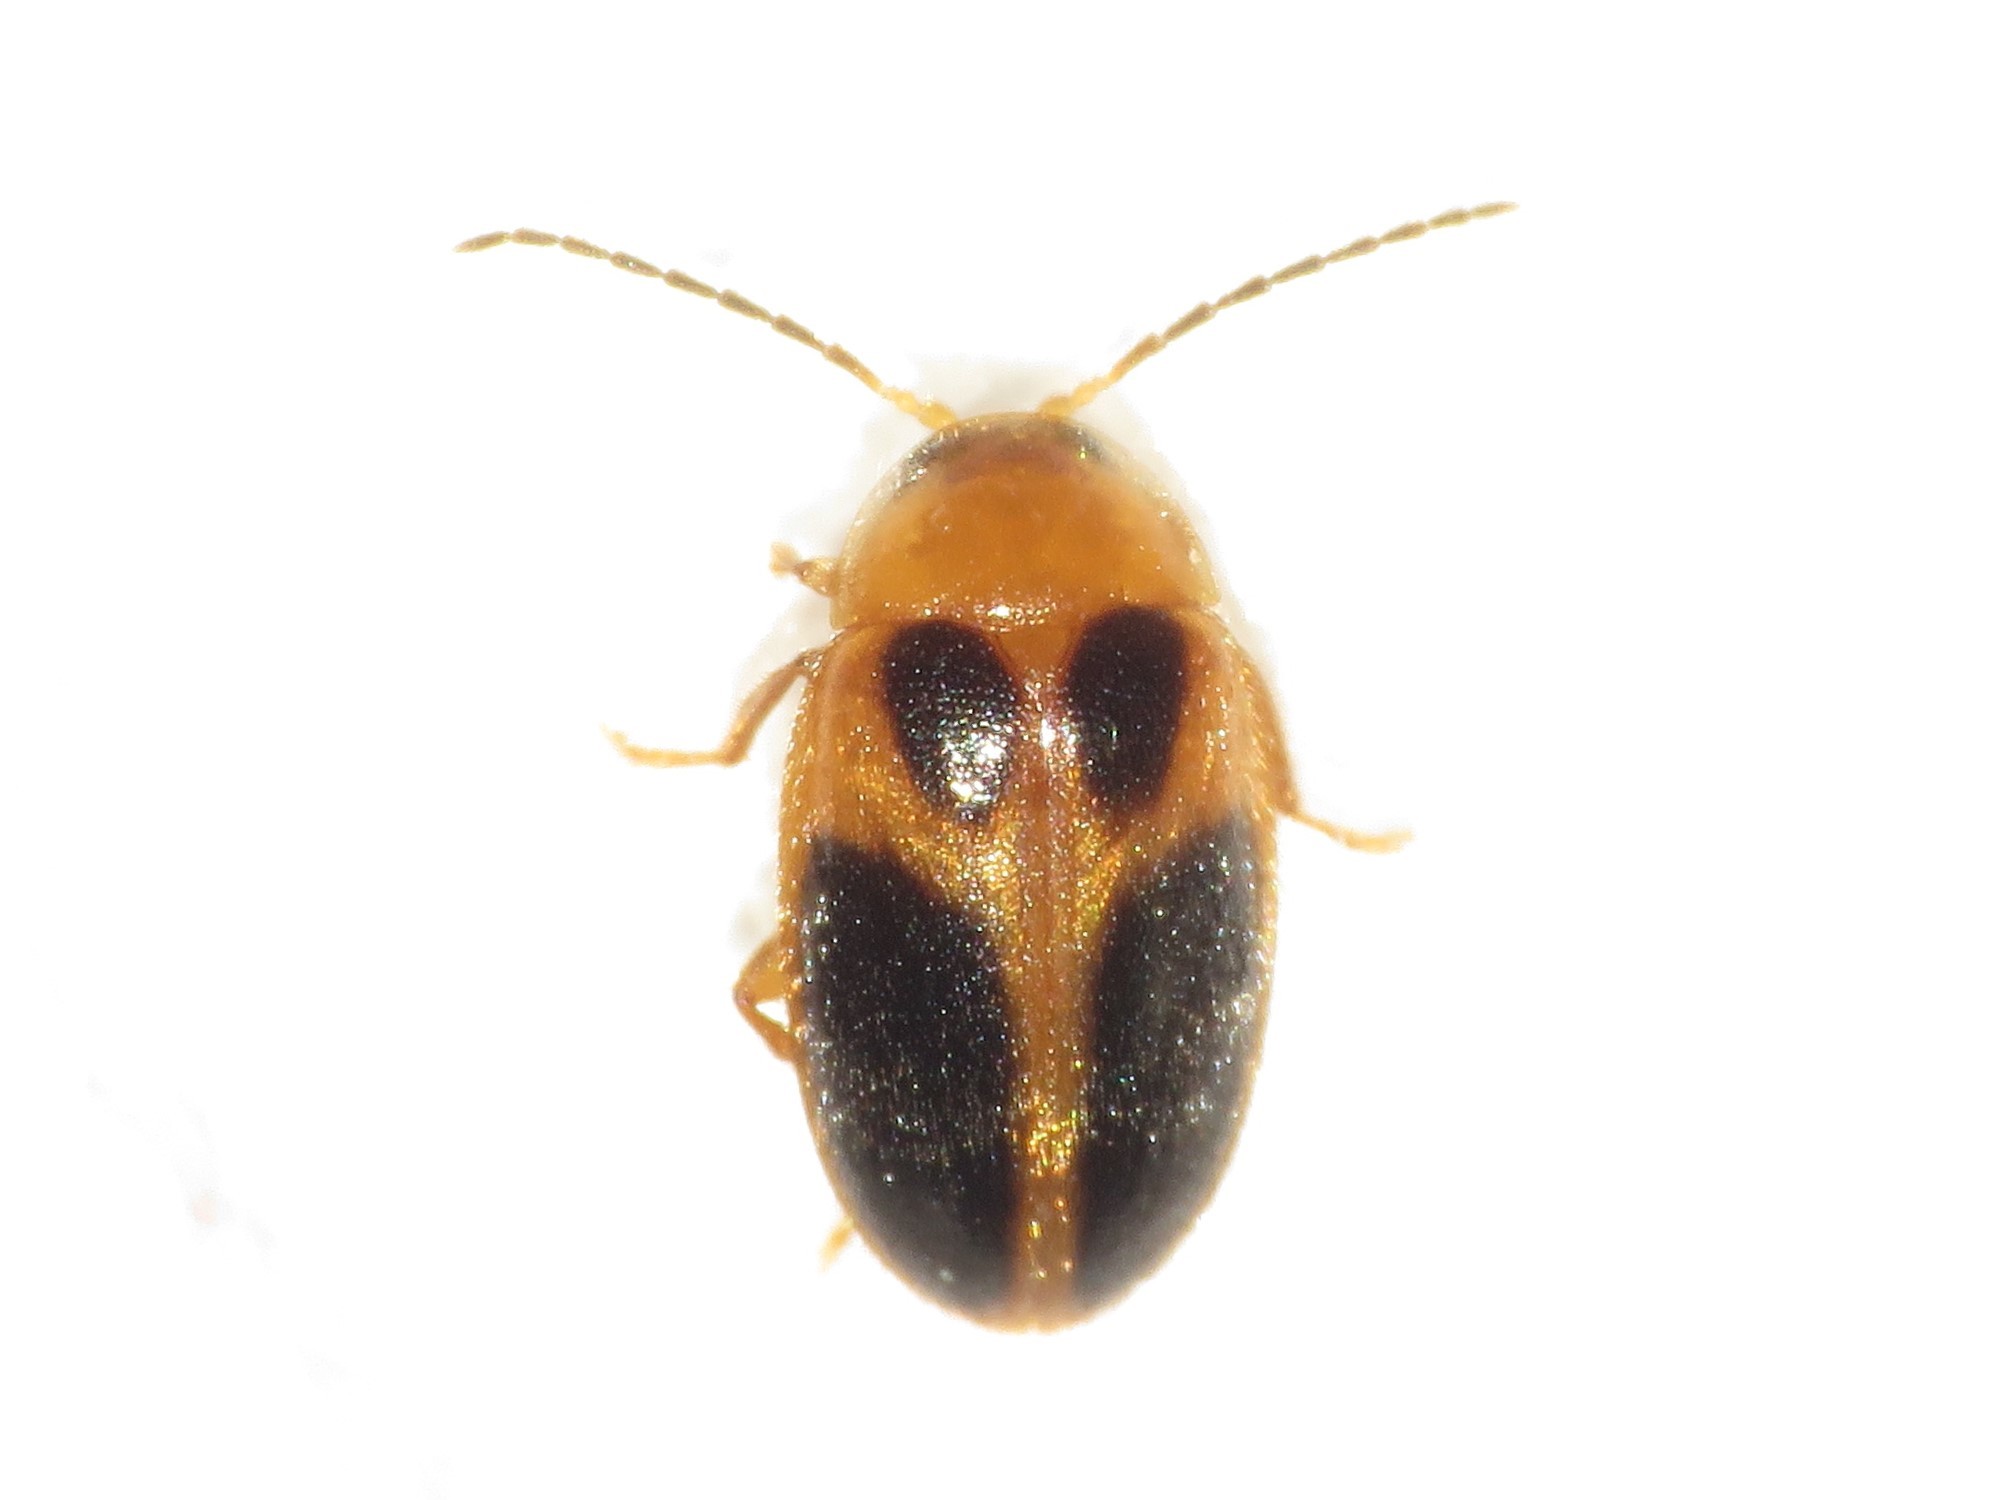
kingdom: Animalia
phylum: Arthropoda
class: Insecta
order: Coleoptera
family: Scirtidae
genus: Sacodes
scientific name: Sacodes pulchella
